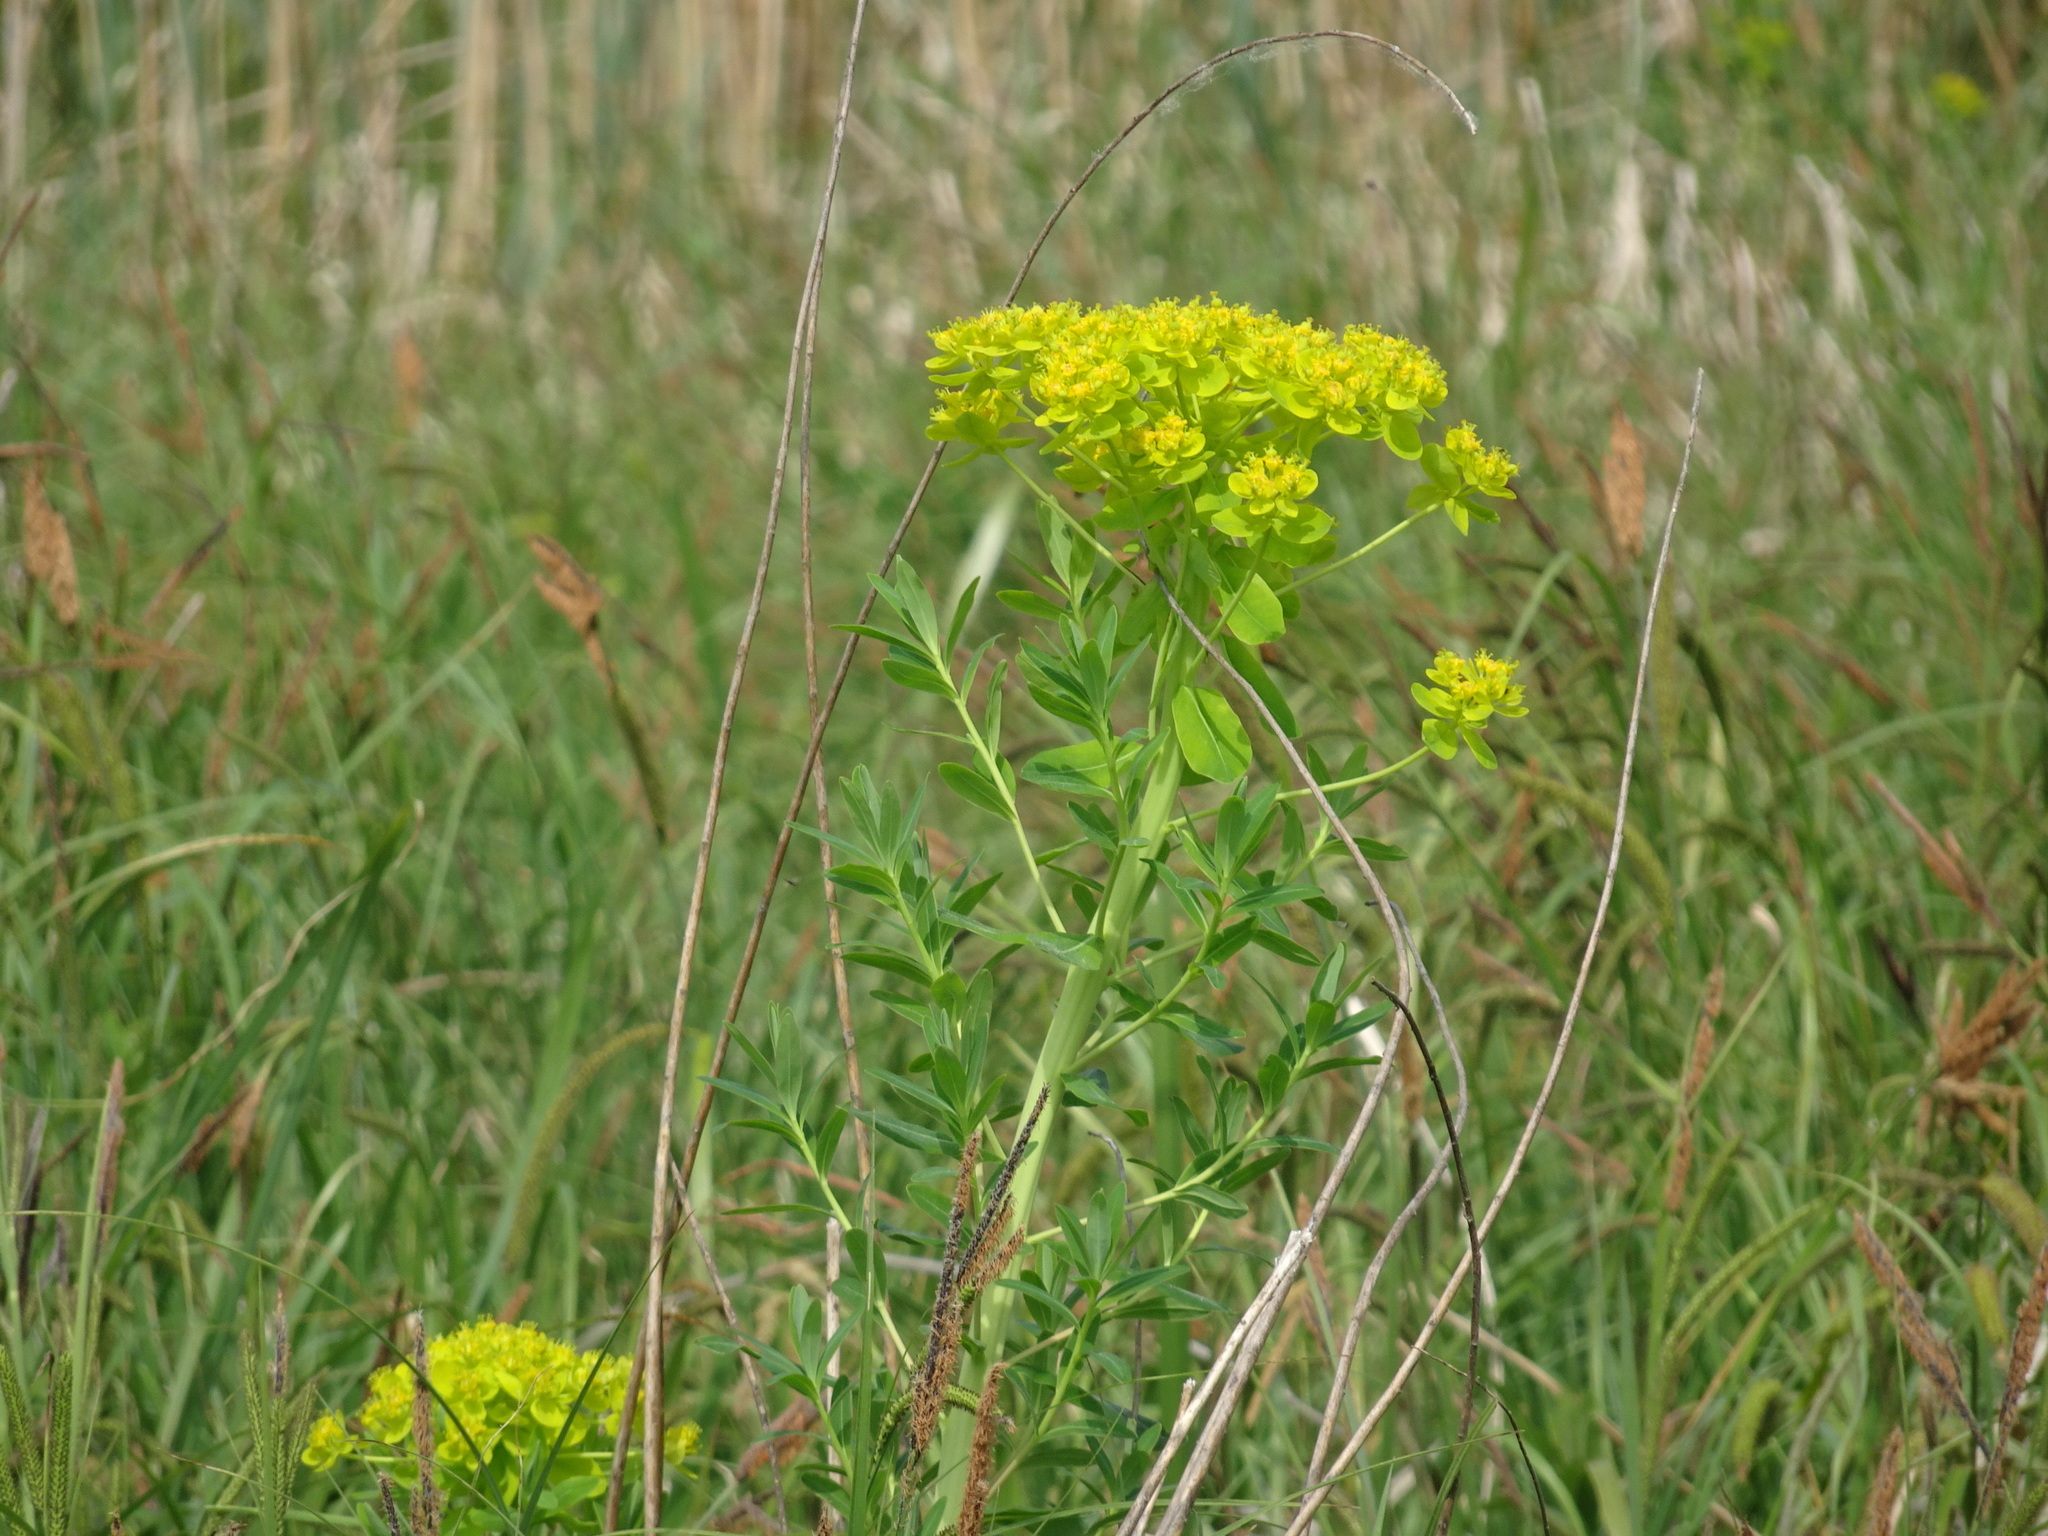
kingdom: Plantae
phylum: Tracheophyta
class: Magnoliopsida
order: Malpighiales
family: Euphorbiaceae
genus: Euphorbia
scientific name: Euphorbia palustris
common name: Marsh spurge
